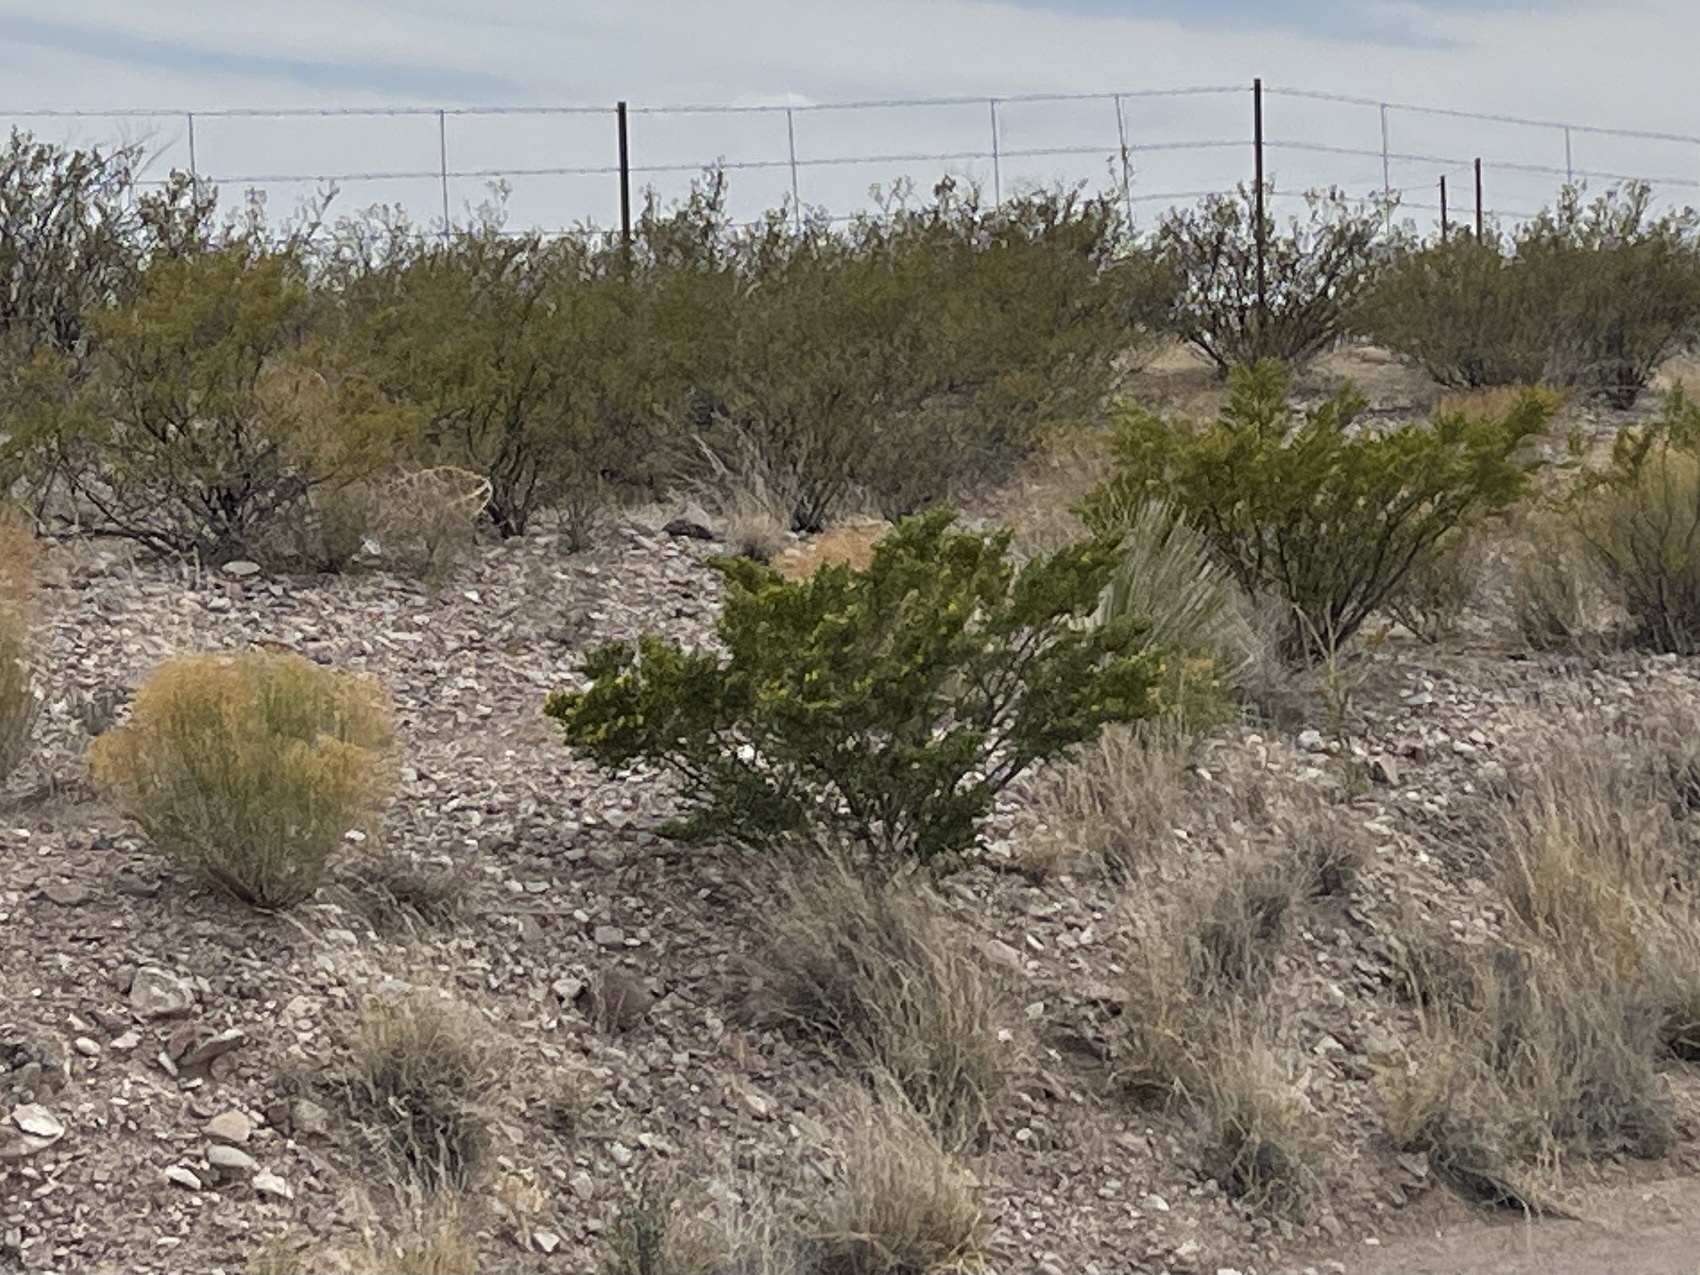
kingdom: Plantae
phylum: Tracheophyta
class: Magnoliopsida
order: Zygophyllales
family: Zygophyllaceae
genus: Larrea
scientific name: Larrea tridentata
